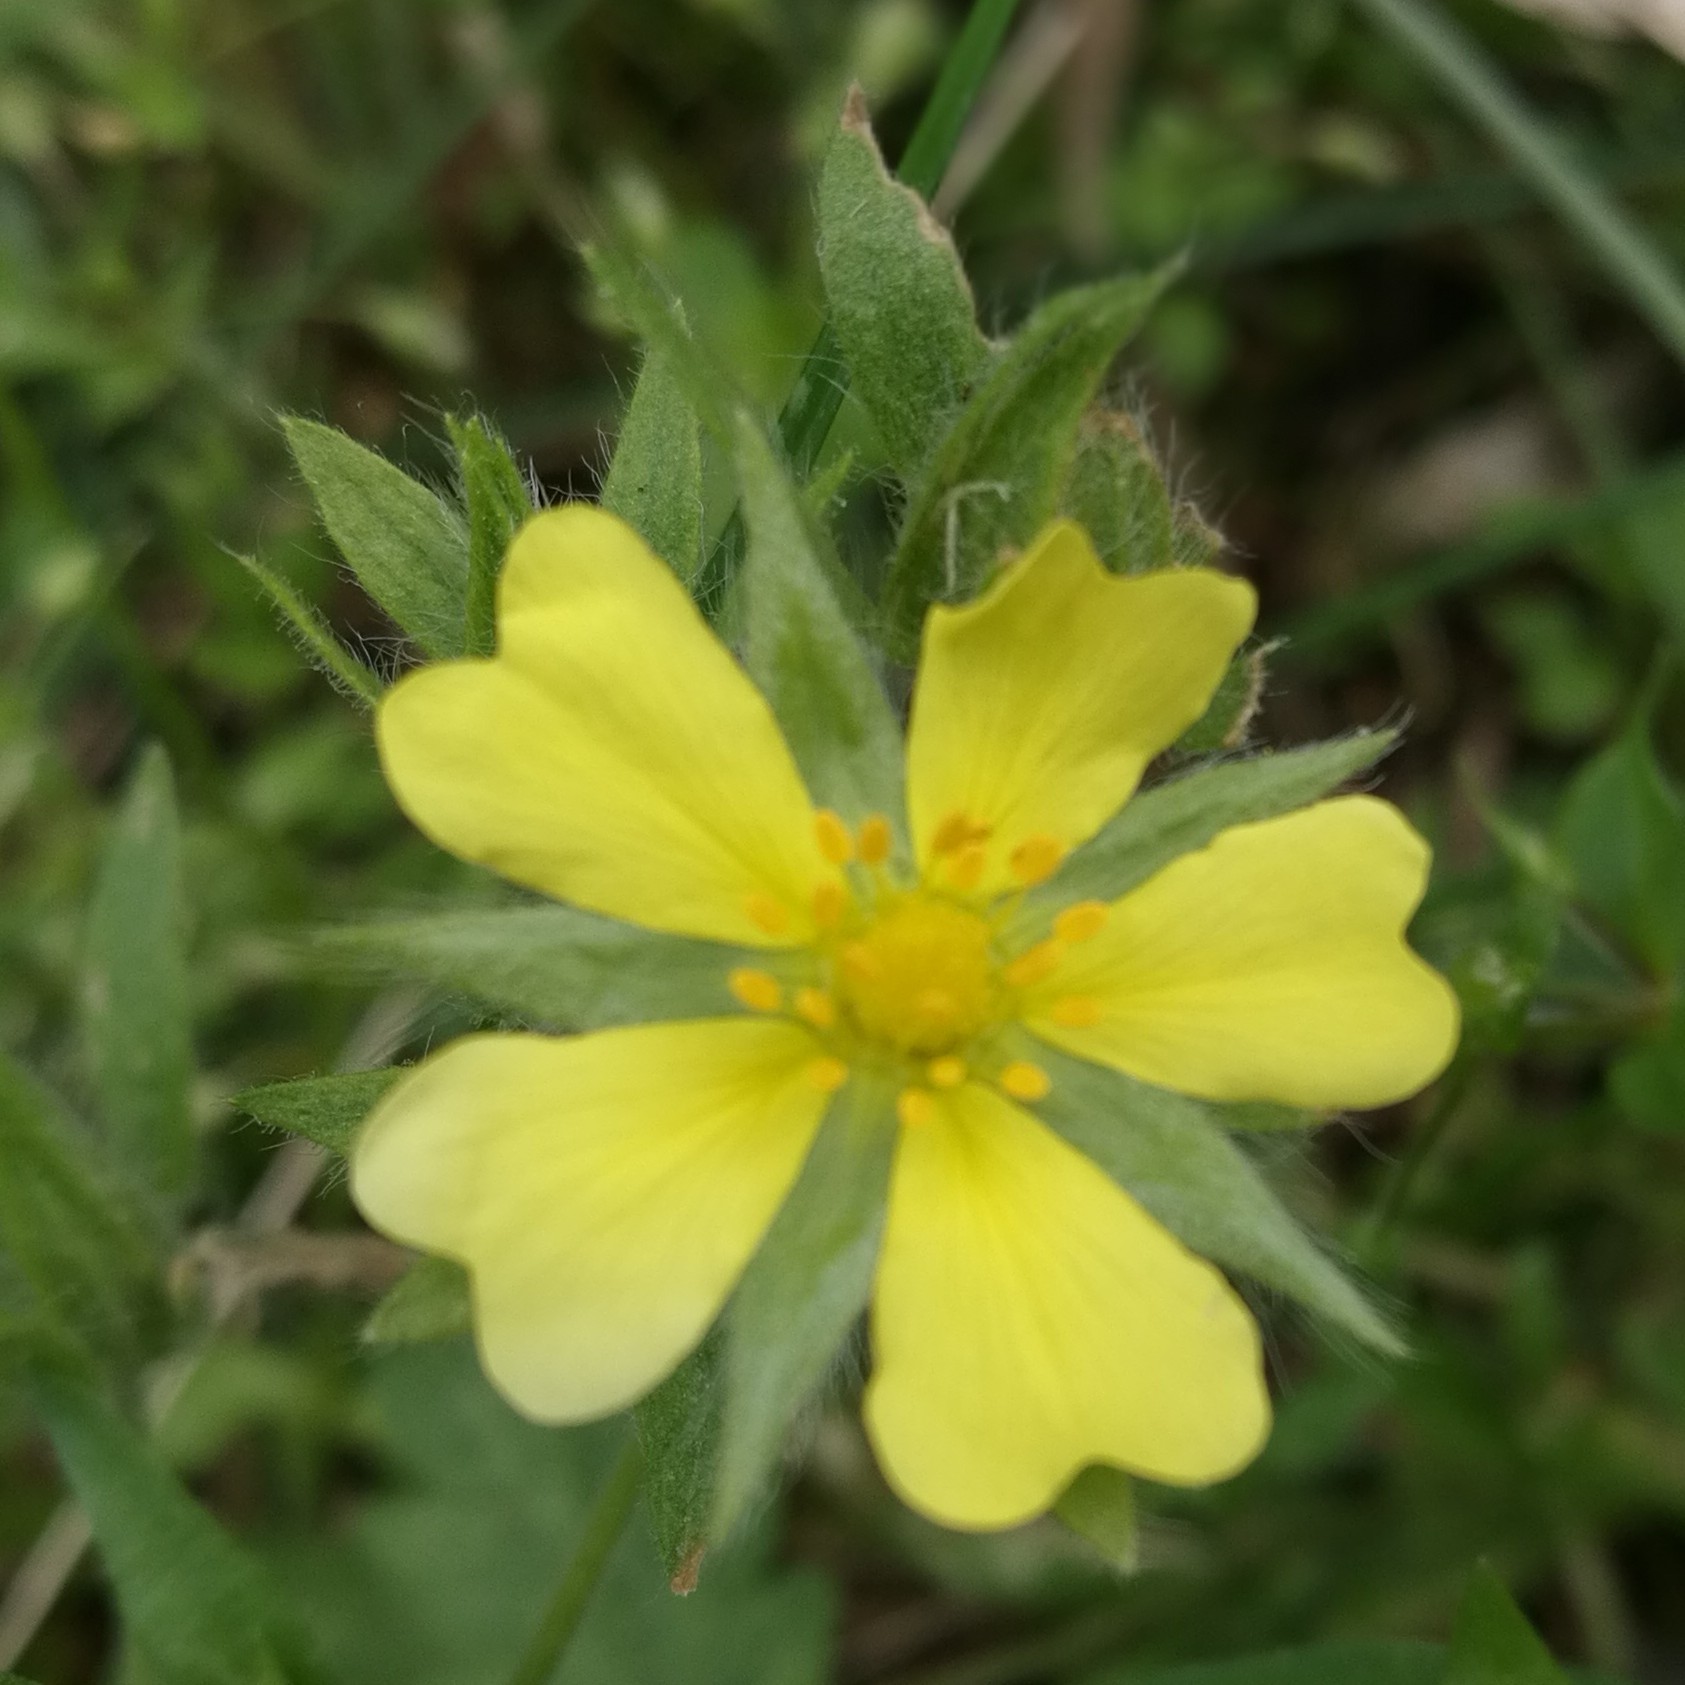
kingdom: Plantae
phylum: Tracheophyta
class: Magnoliopsida
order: Rosales
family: Rosaceae
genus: Potentilla
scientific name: Potentilla recta
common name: Sulphur cinquefoil
